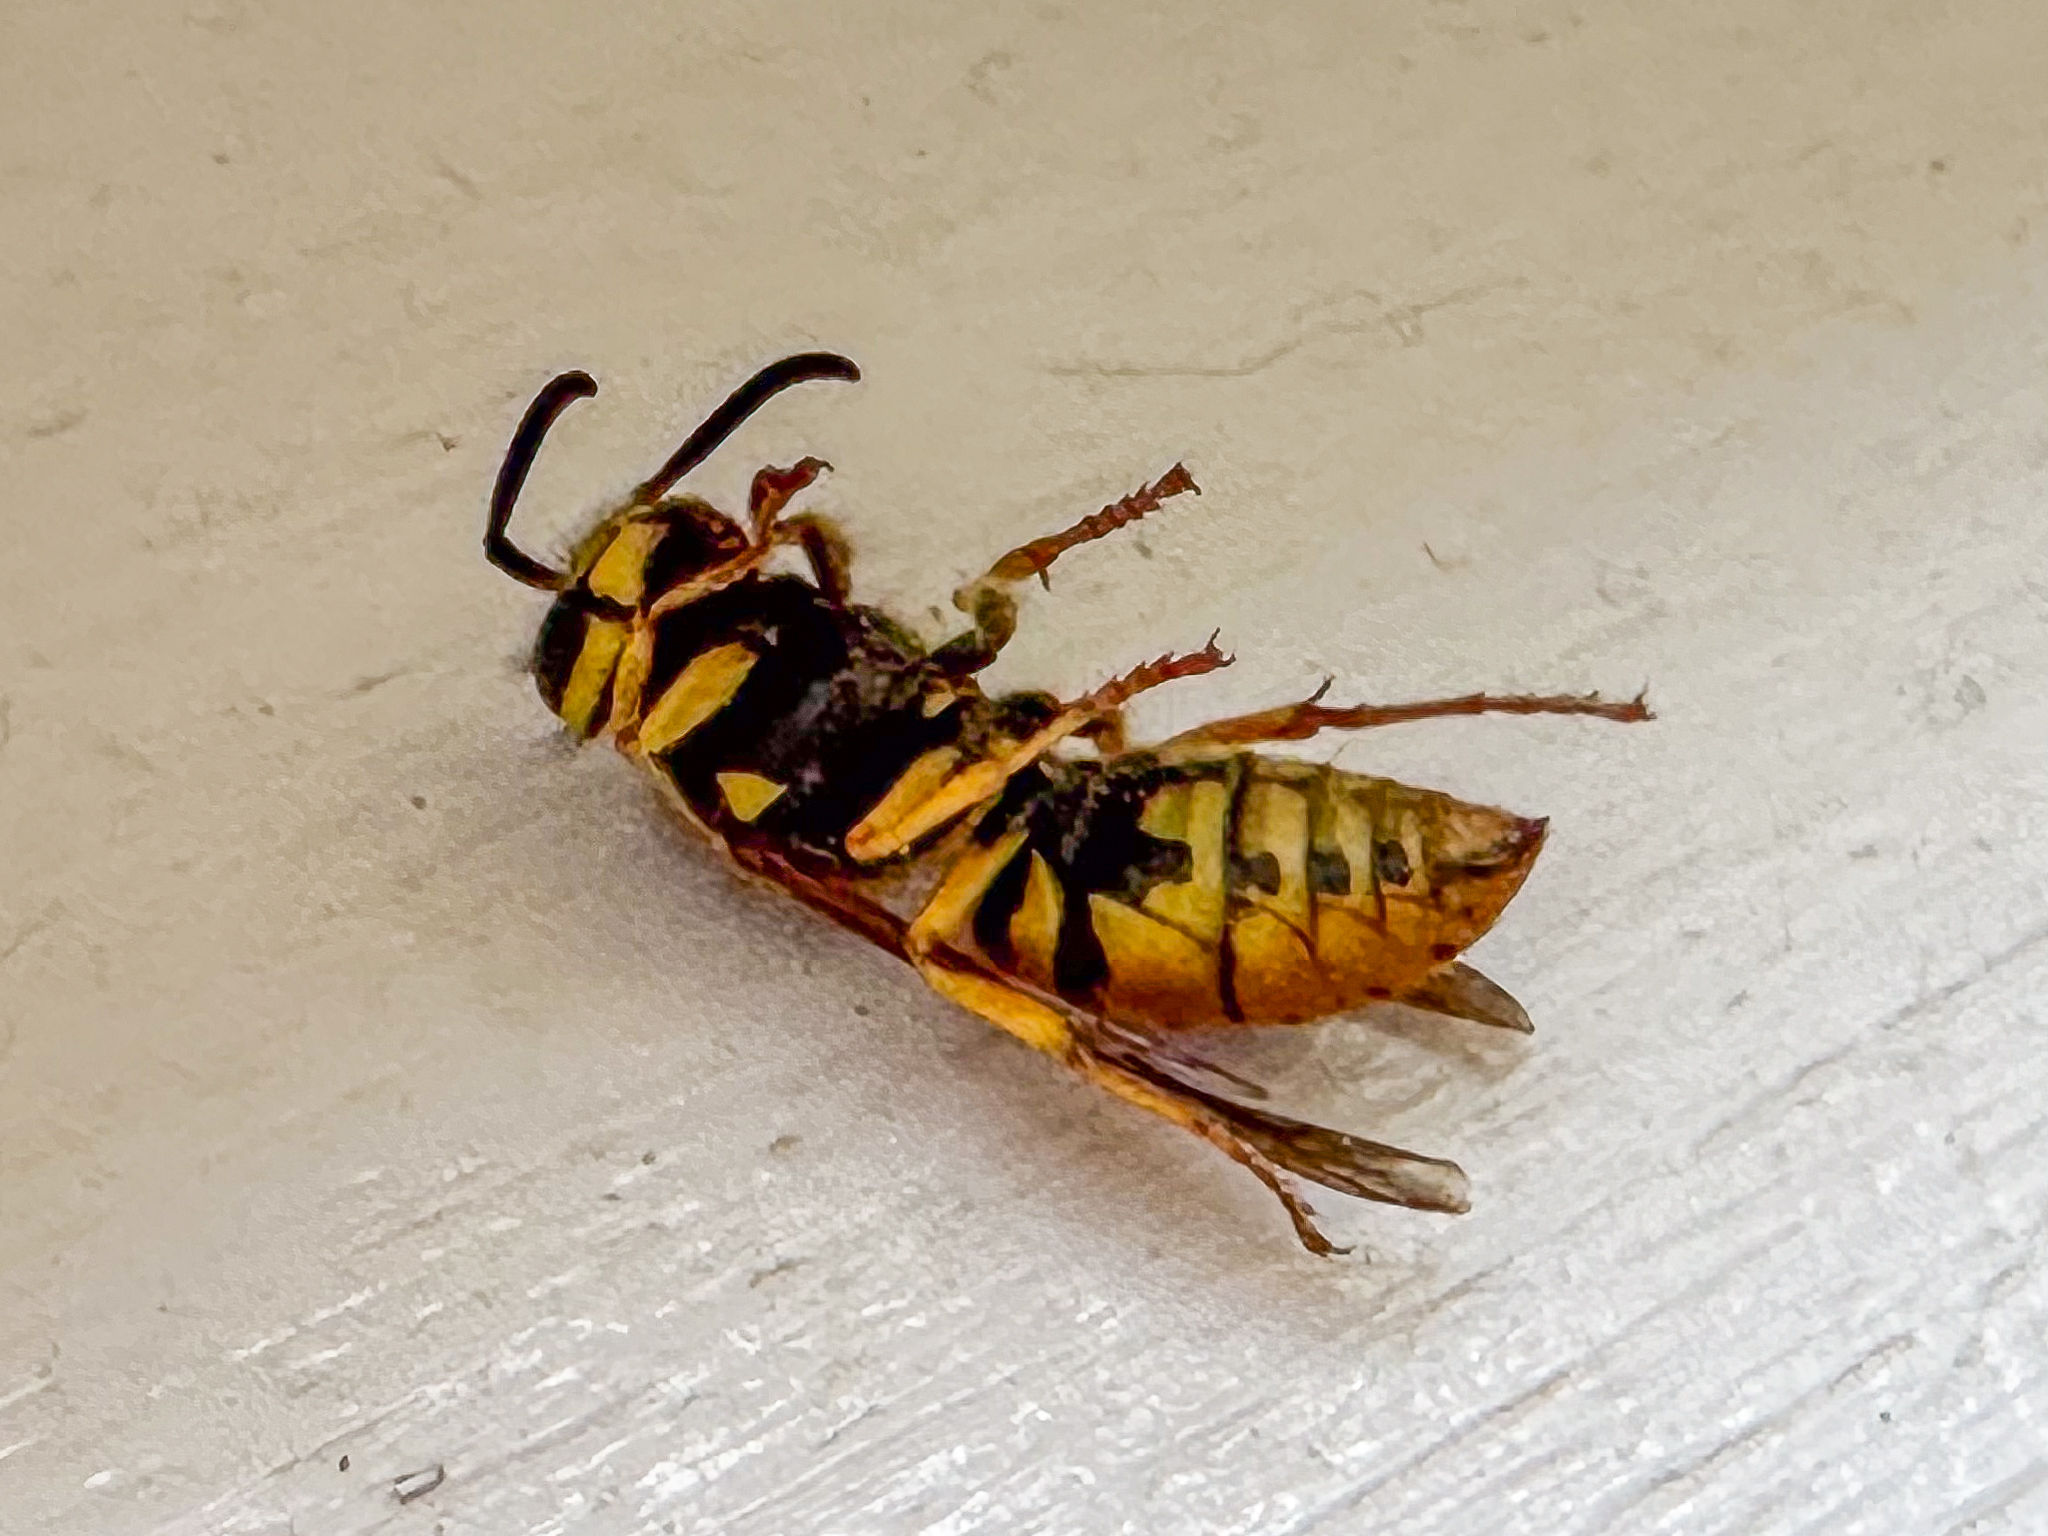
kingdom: Animalia
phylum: Arthropoda
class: Insecta
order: Hymenoptera
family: Vespidae
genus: Vespula
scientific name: Vespula maculifrons
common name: Eastern yellowjacket
